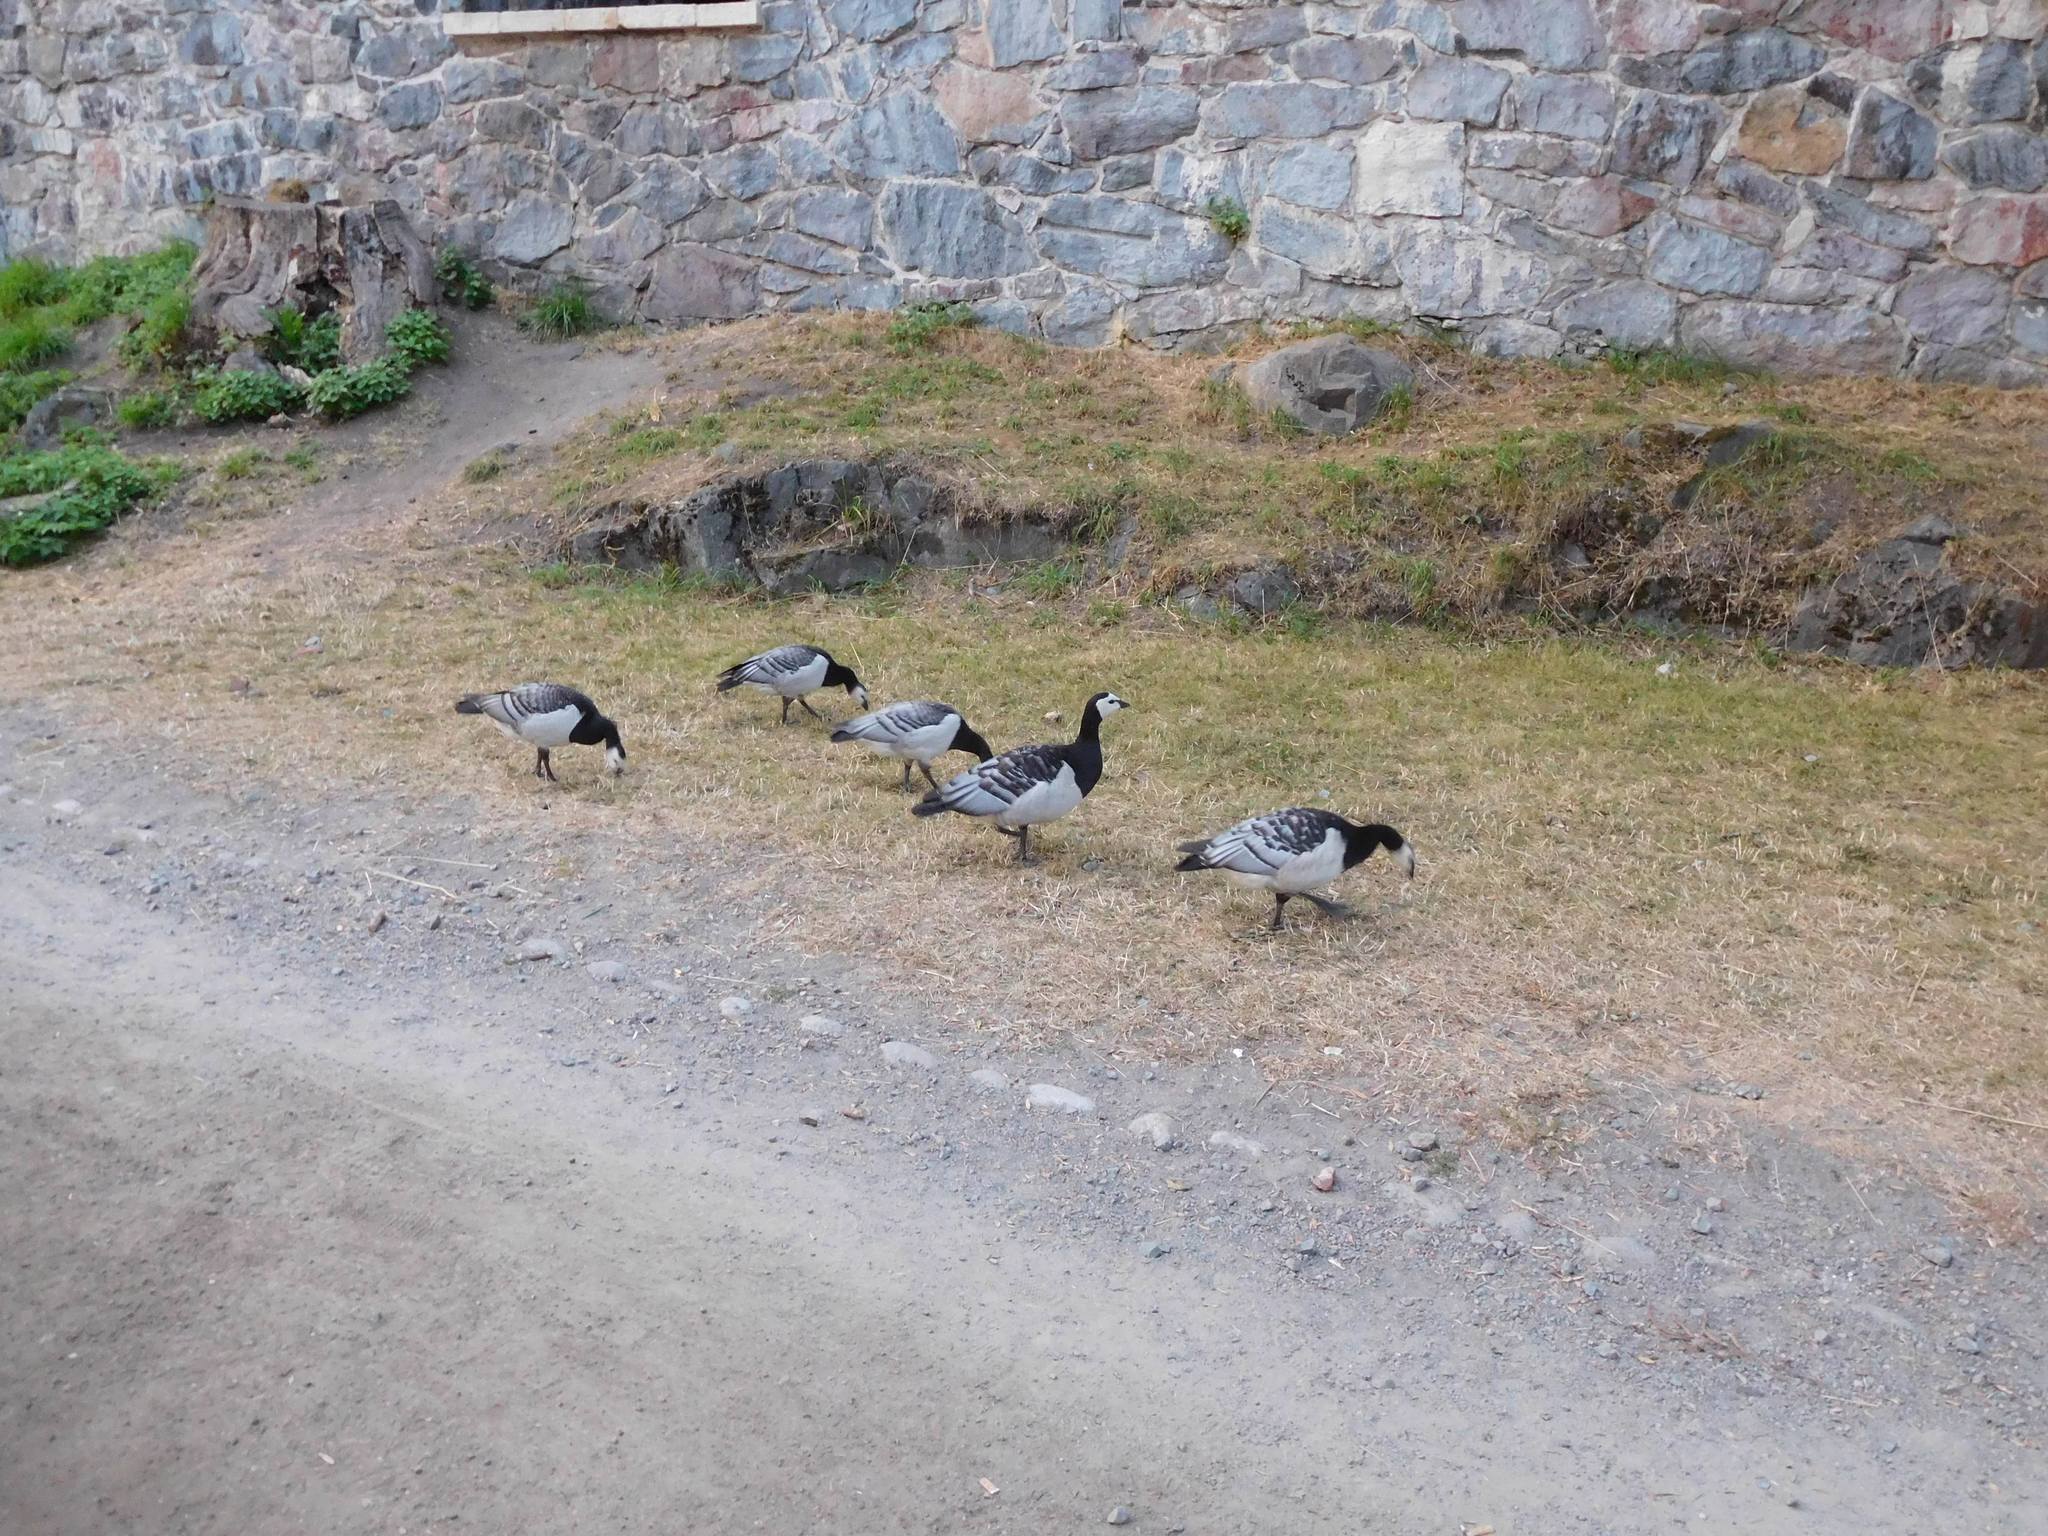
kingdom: Animalia
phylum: Chordata
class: Aves
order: Anseriformes
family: Anatidae
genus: Branta
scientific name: Branta leucopsis
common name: Barnacle goose
